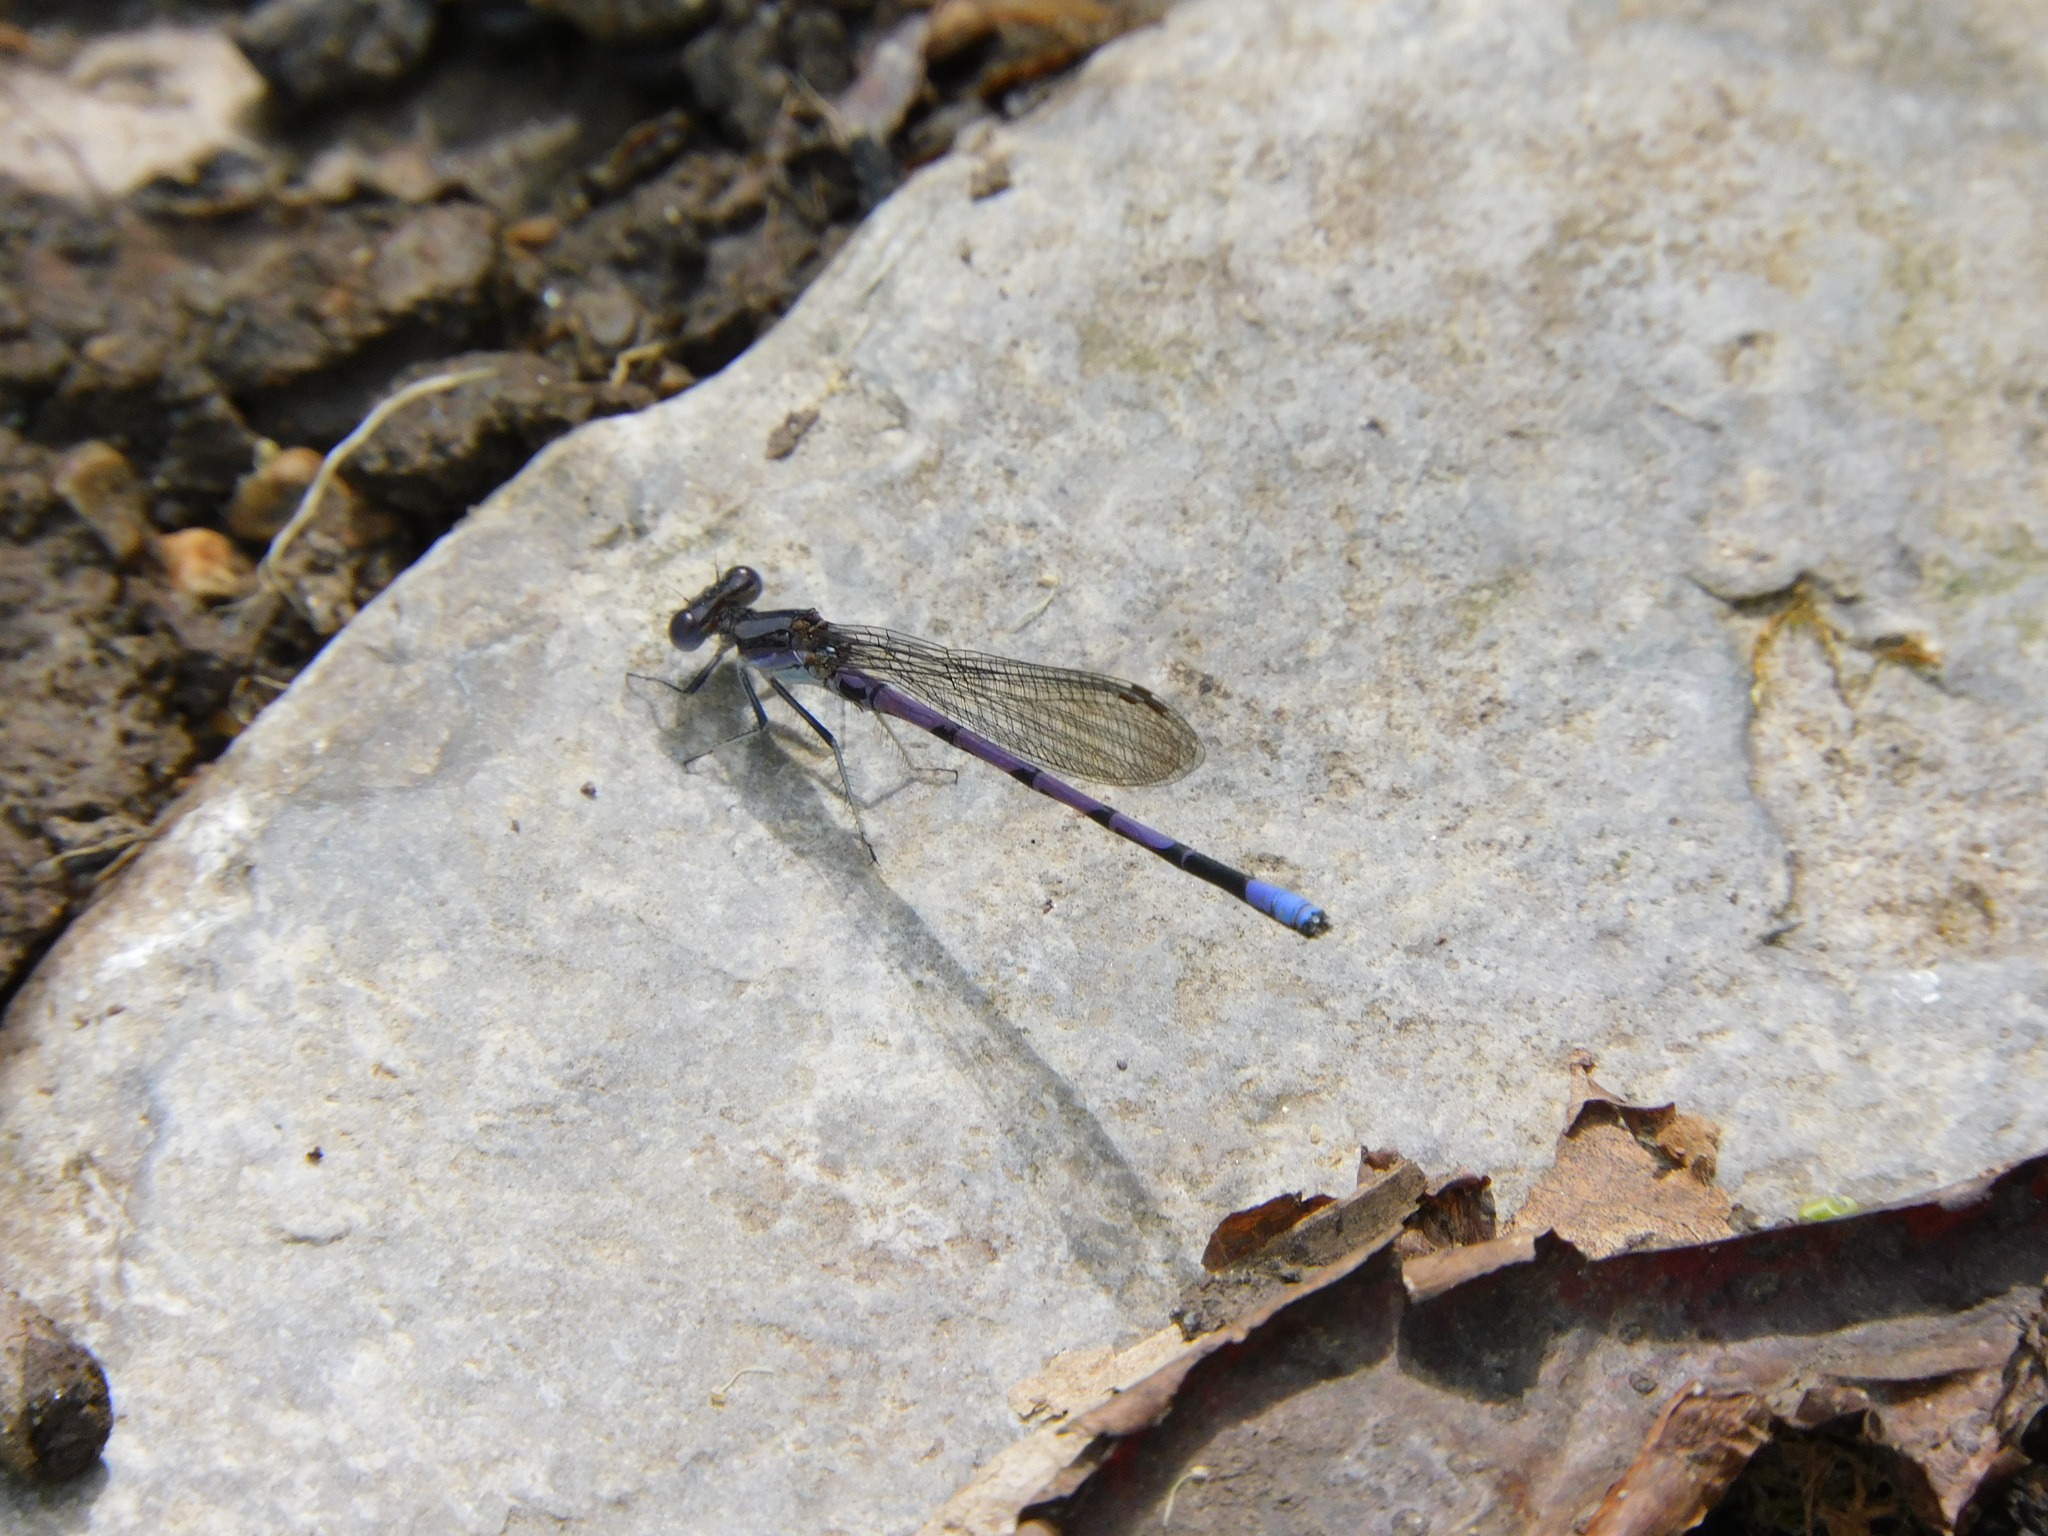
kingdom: Animalia
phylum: Arthropoda
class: Insecta
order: Odonata
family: Coenagrionidae
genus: Argia
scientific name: Argia fumipennis
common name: Variable dancer
